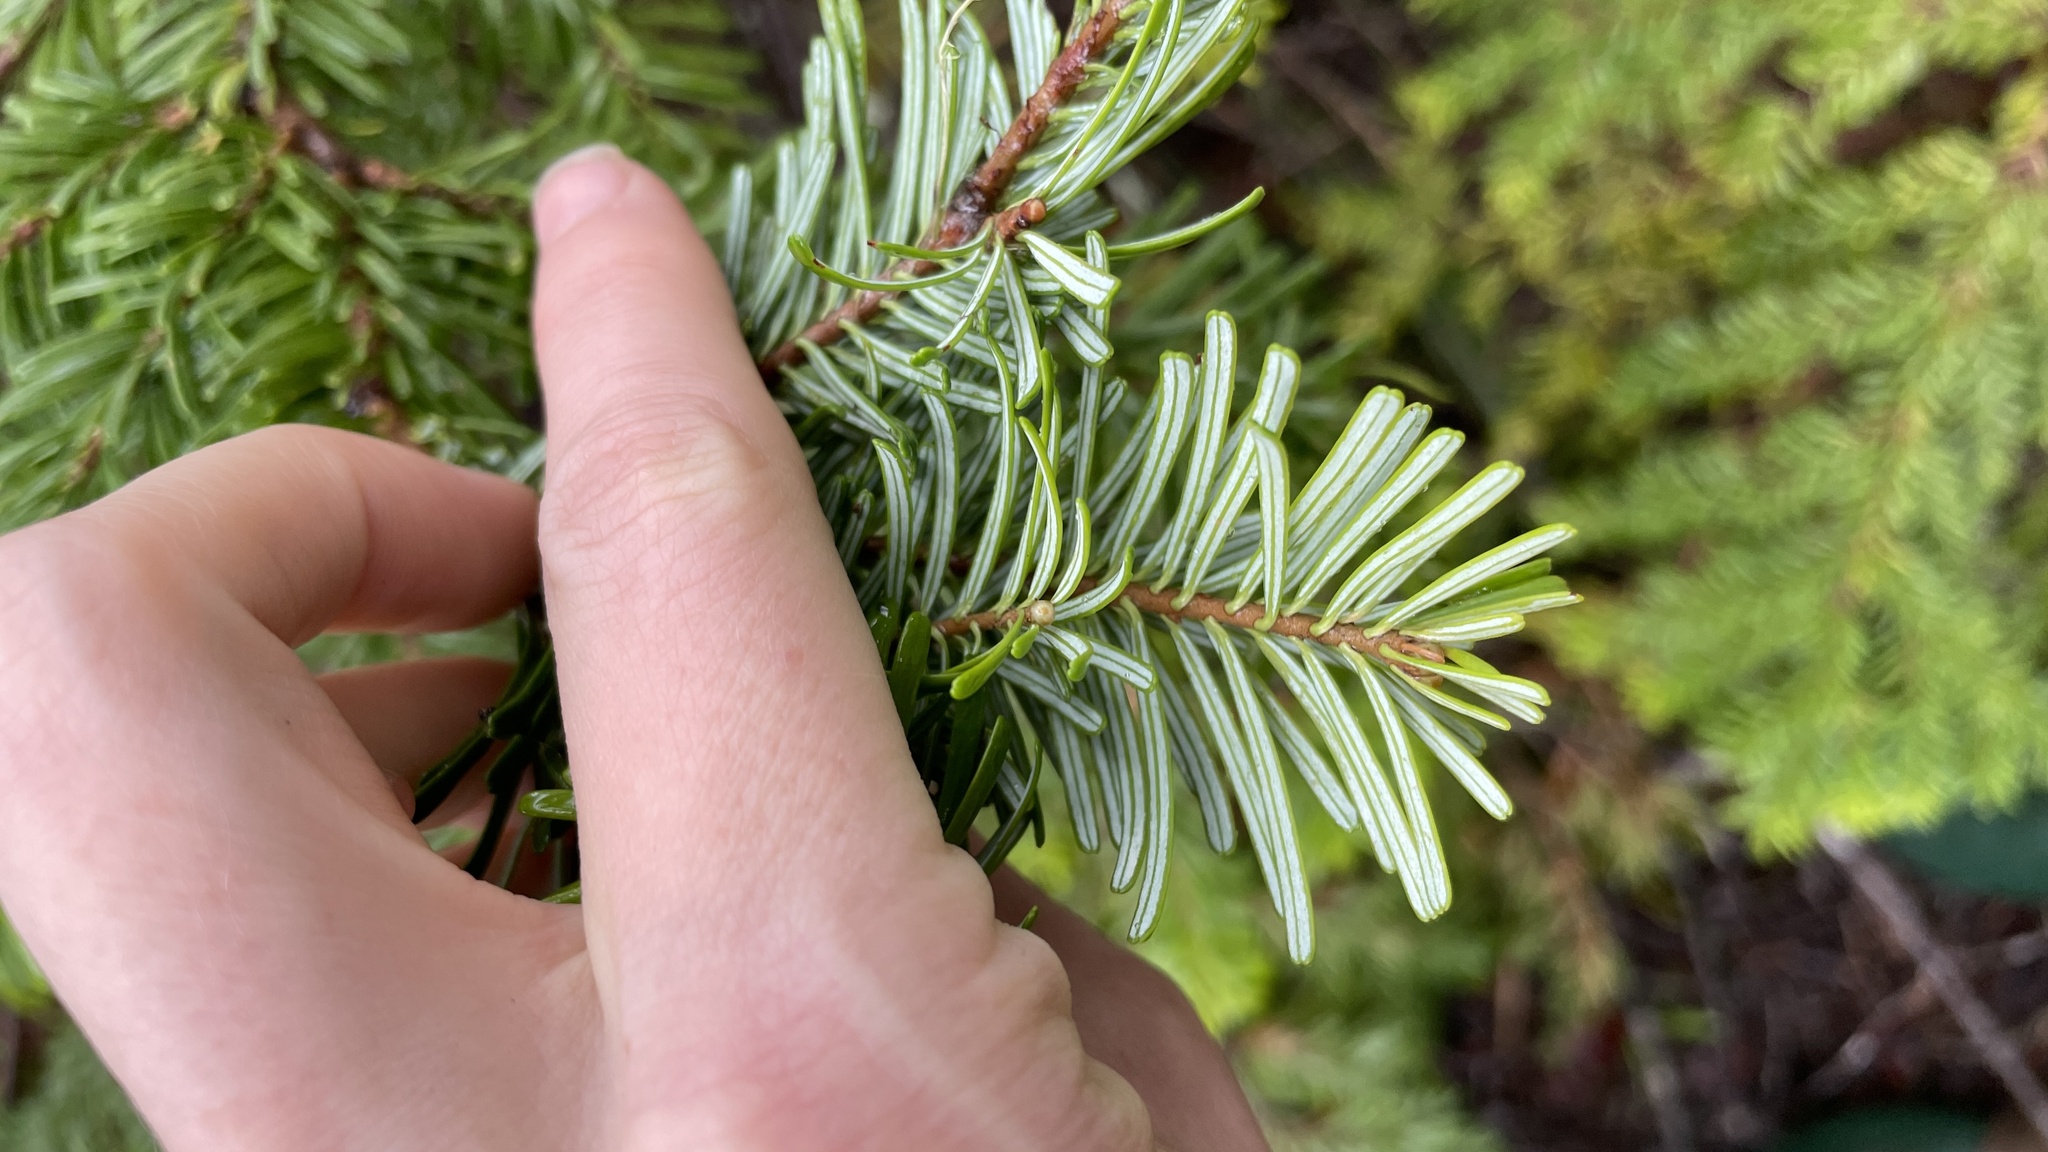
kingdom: Plantae
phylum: Tracheophyta
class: Pinopsida
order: Pinales
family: Pinaceae
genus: Abies
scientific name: Abies amabilis
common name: Pacific silver fir
